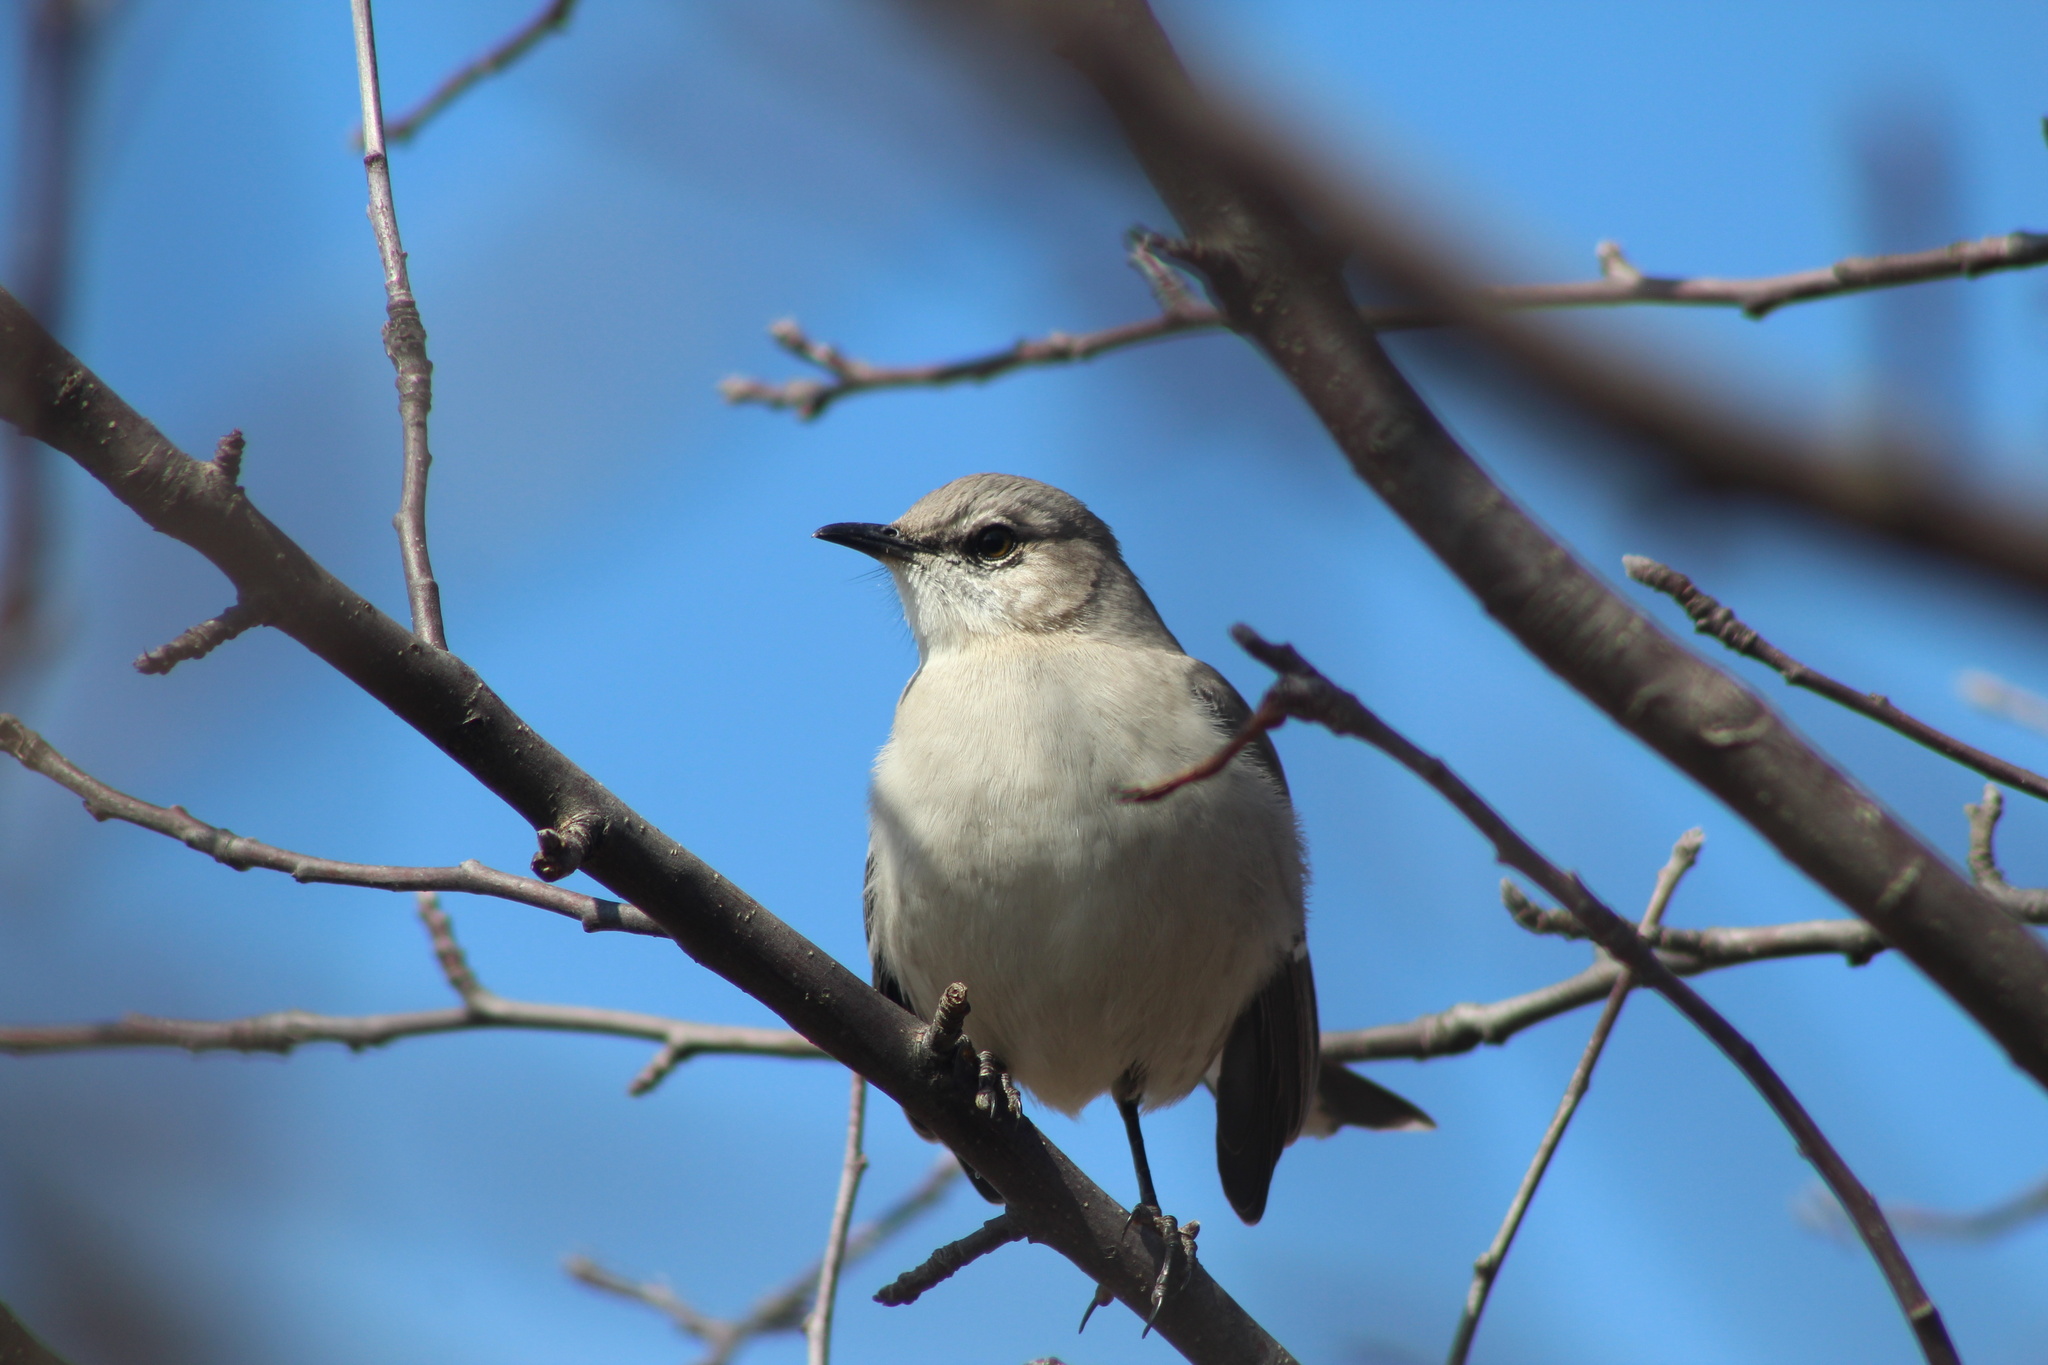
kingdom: Animalia
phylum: Chordata
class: Aves
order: Passeriformes
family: Mimidae
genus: Mimus
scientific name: Mimus polyglottos
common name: Northern mockingbird
